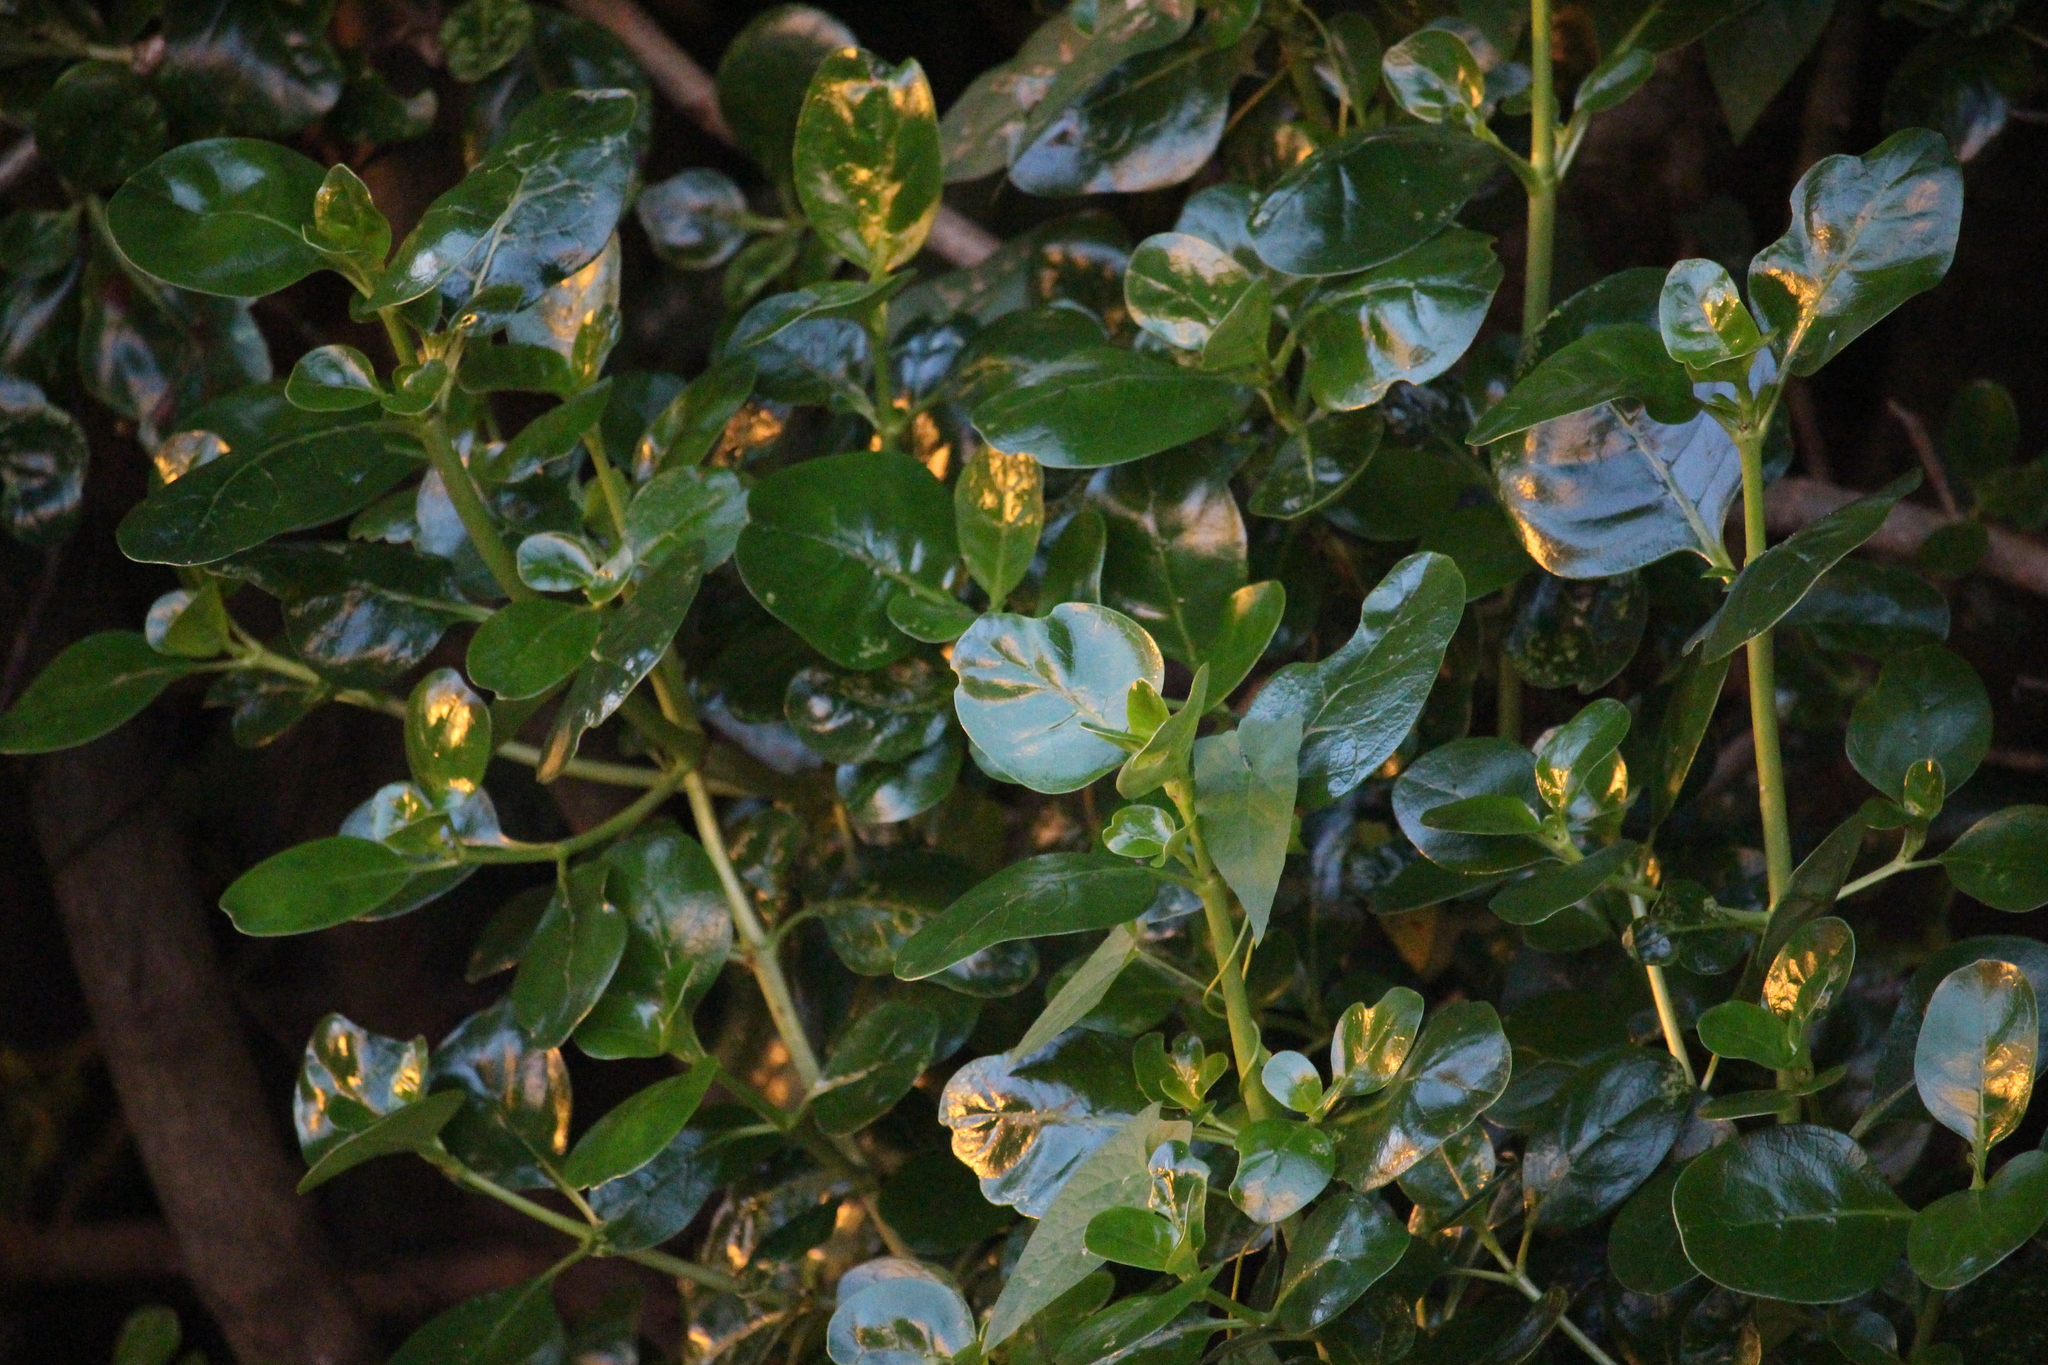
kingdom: Plantae
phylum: Tracheophyta
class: Magnoliopsida
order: Gentianales
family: Rubiaceae
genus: Coprosma
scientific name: Coprosma repens
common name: Tree bedstraw
